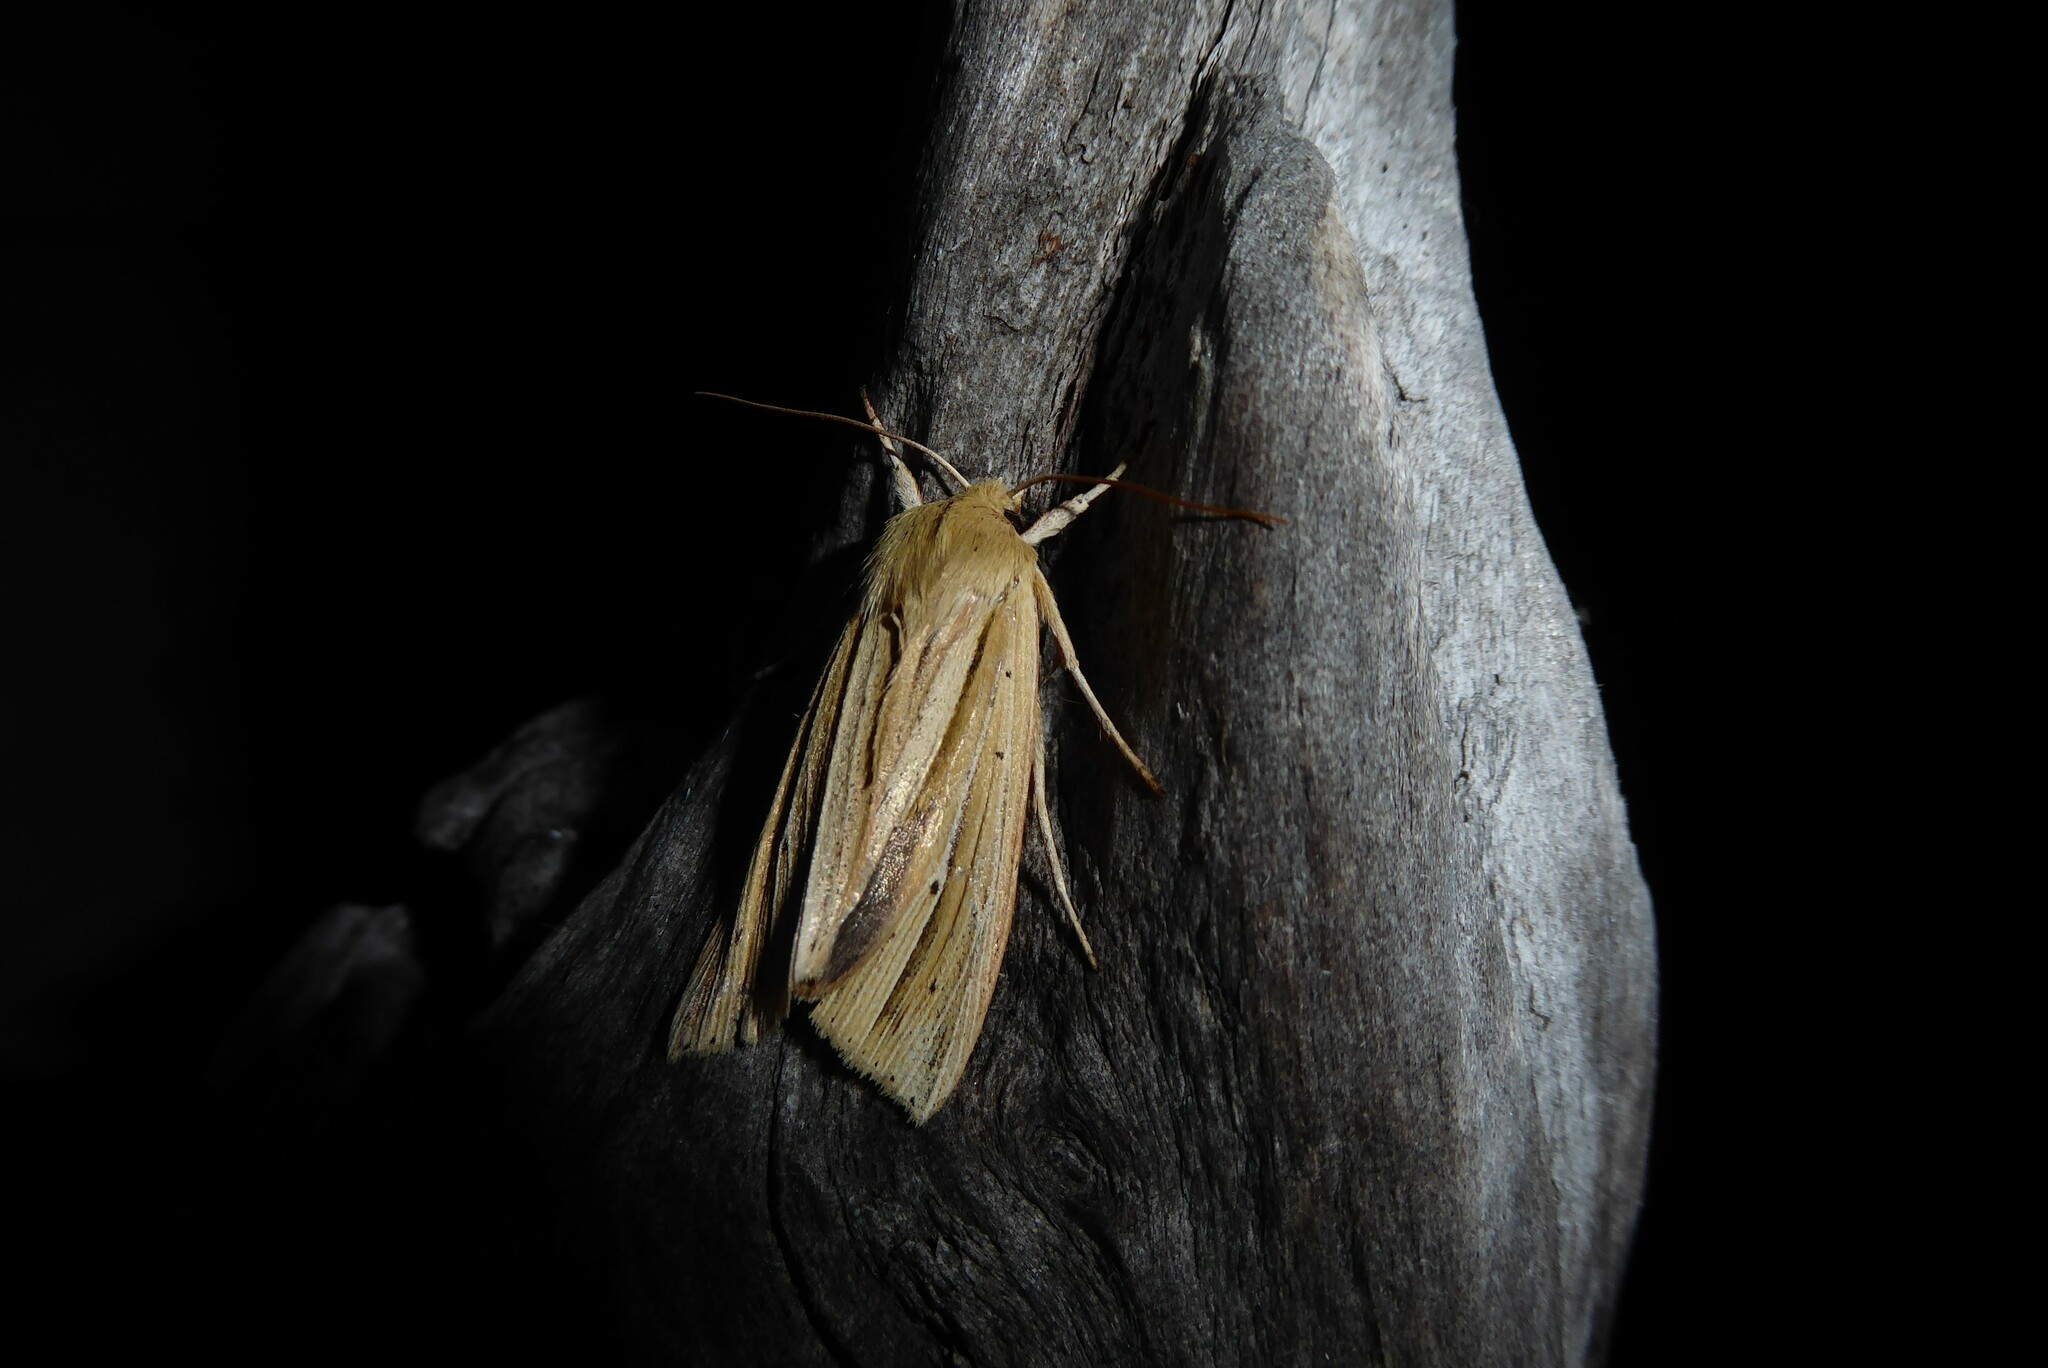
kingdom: Animalia
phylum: Arthropoda
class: Insecta
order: Lepidoptera
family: Noctuidae
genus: Ichneutica
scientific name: Ichneutica sulcana
